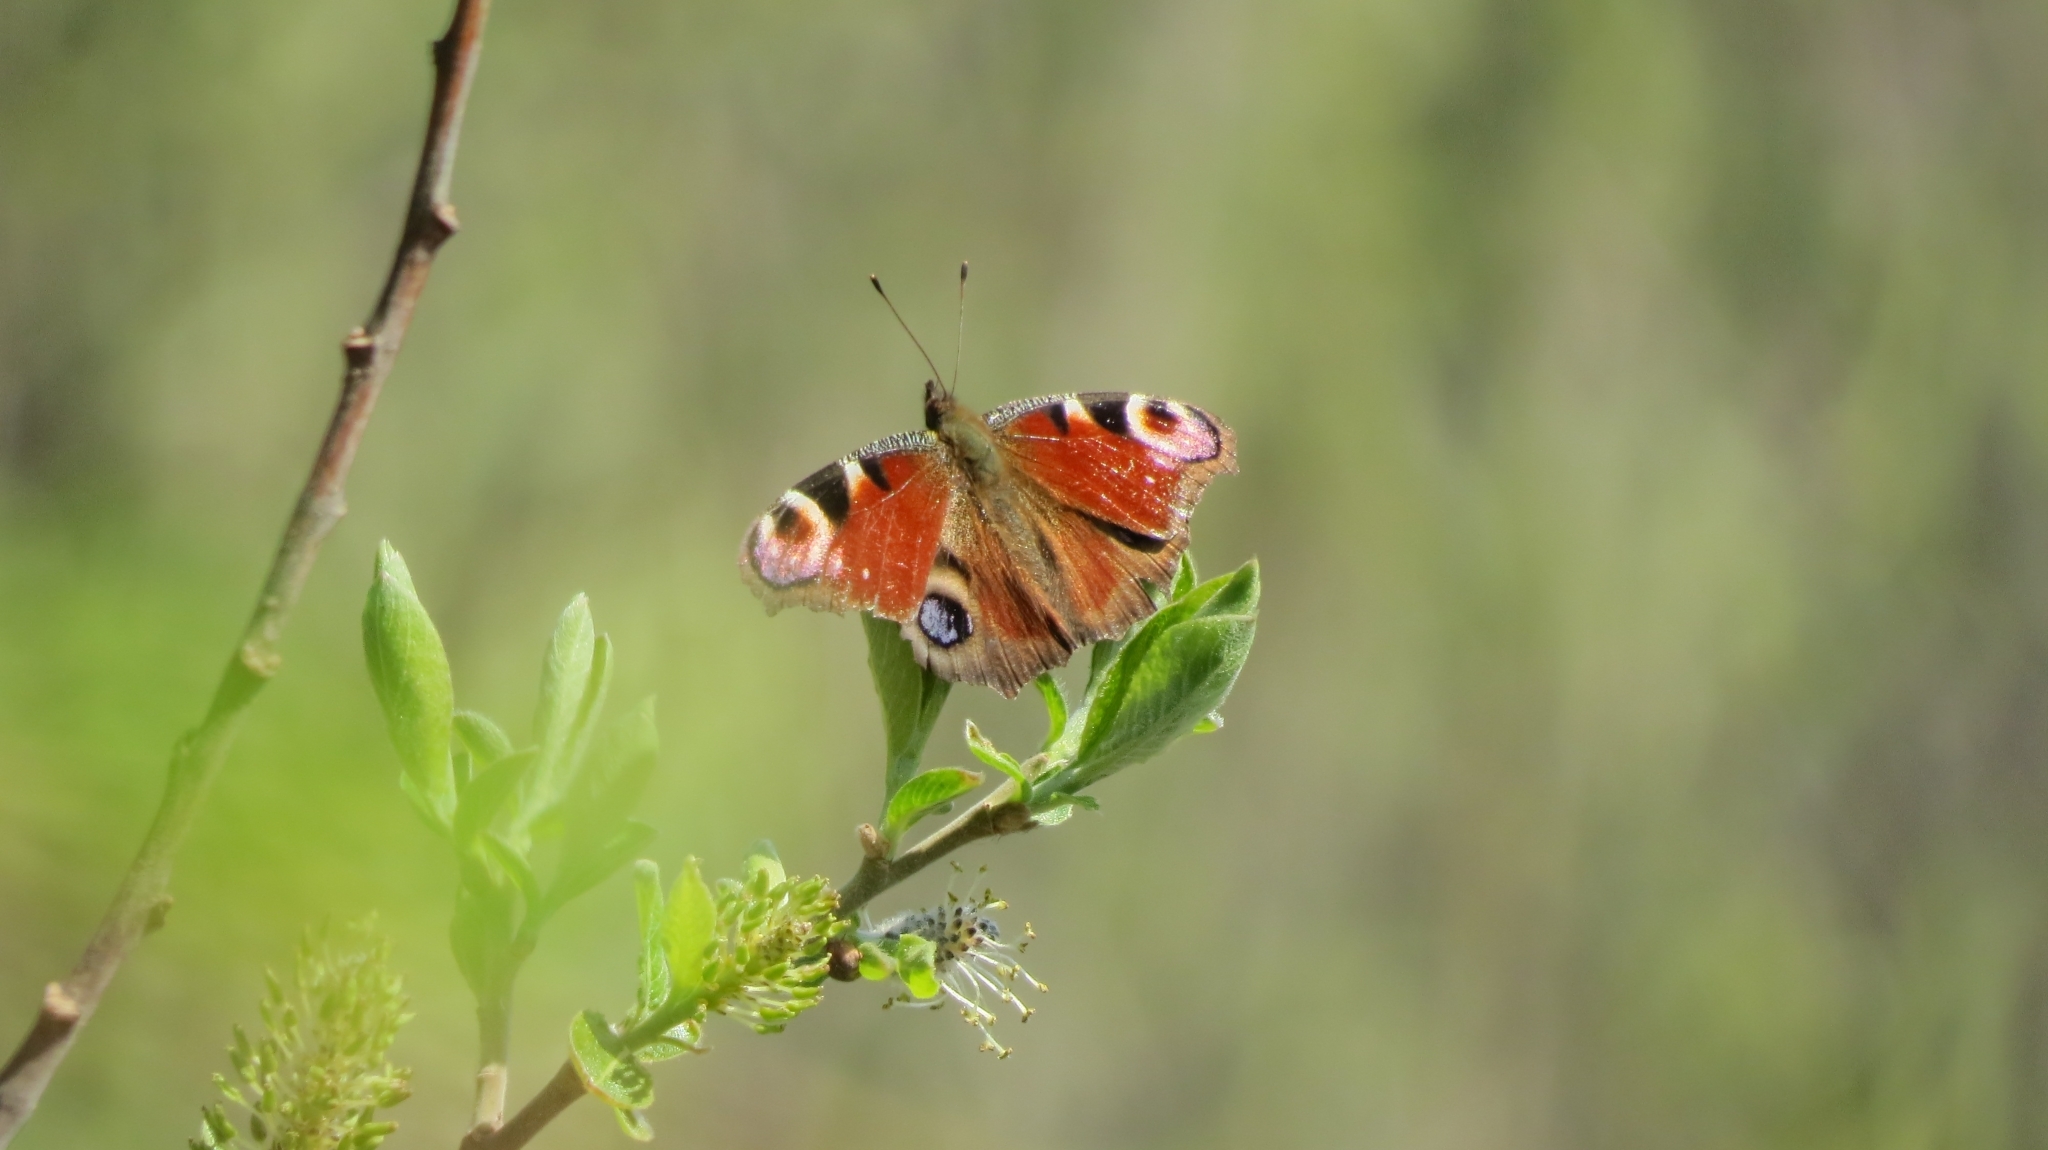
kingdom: Animalia
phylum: Arthropoda
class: Insecta
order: Lepidoptera
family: Nymphalidae
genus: Aglais
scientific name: Aglais io
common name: Peacock
